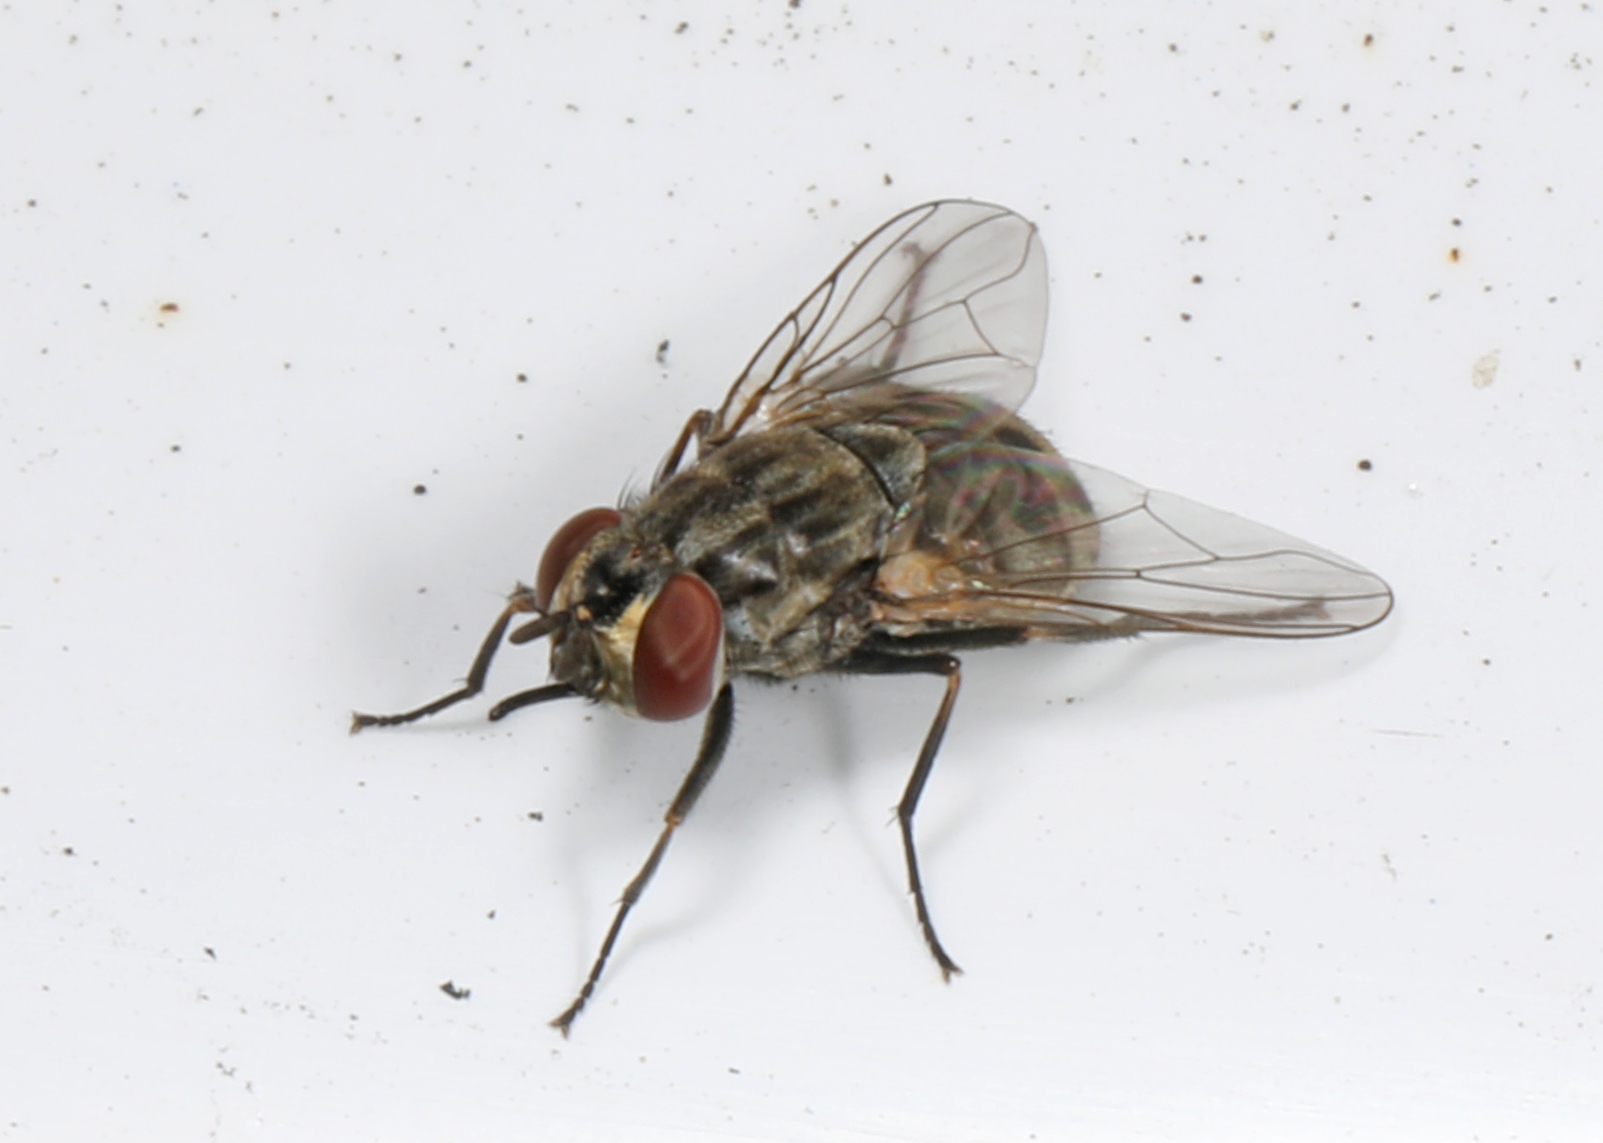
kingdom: Animalia
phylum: Arthropoda
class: Insecta
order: Diptera
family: Muscidae
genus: Stomoxys
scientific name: Stomoxys calcitrans
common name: Stable fly
